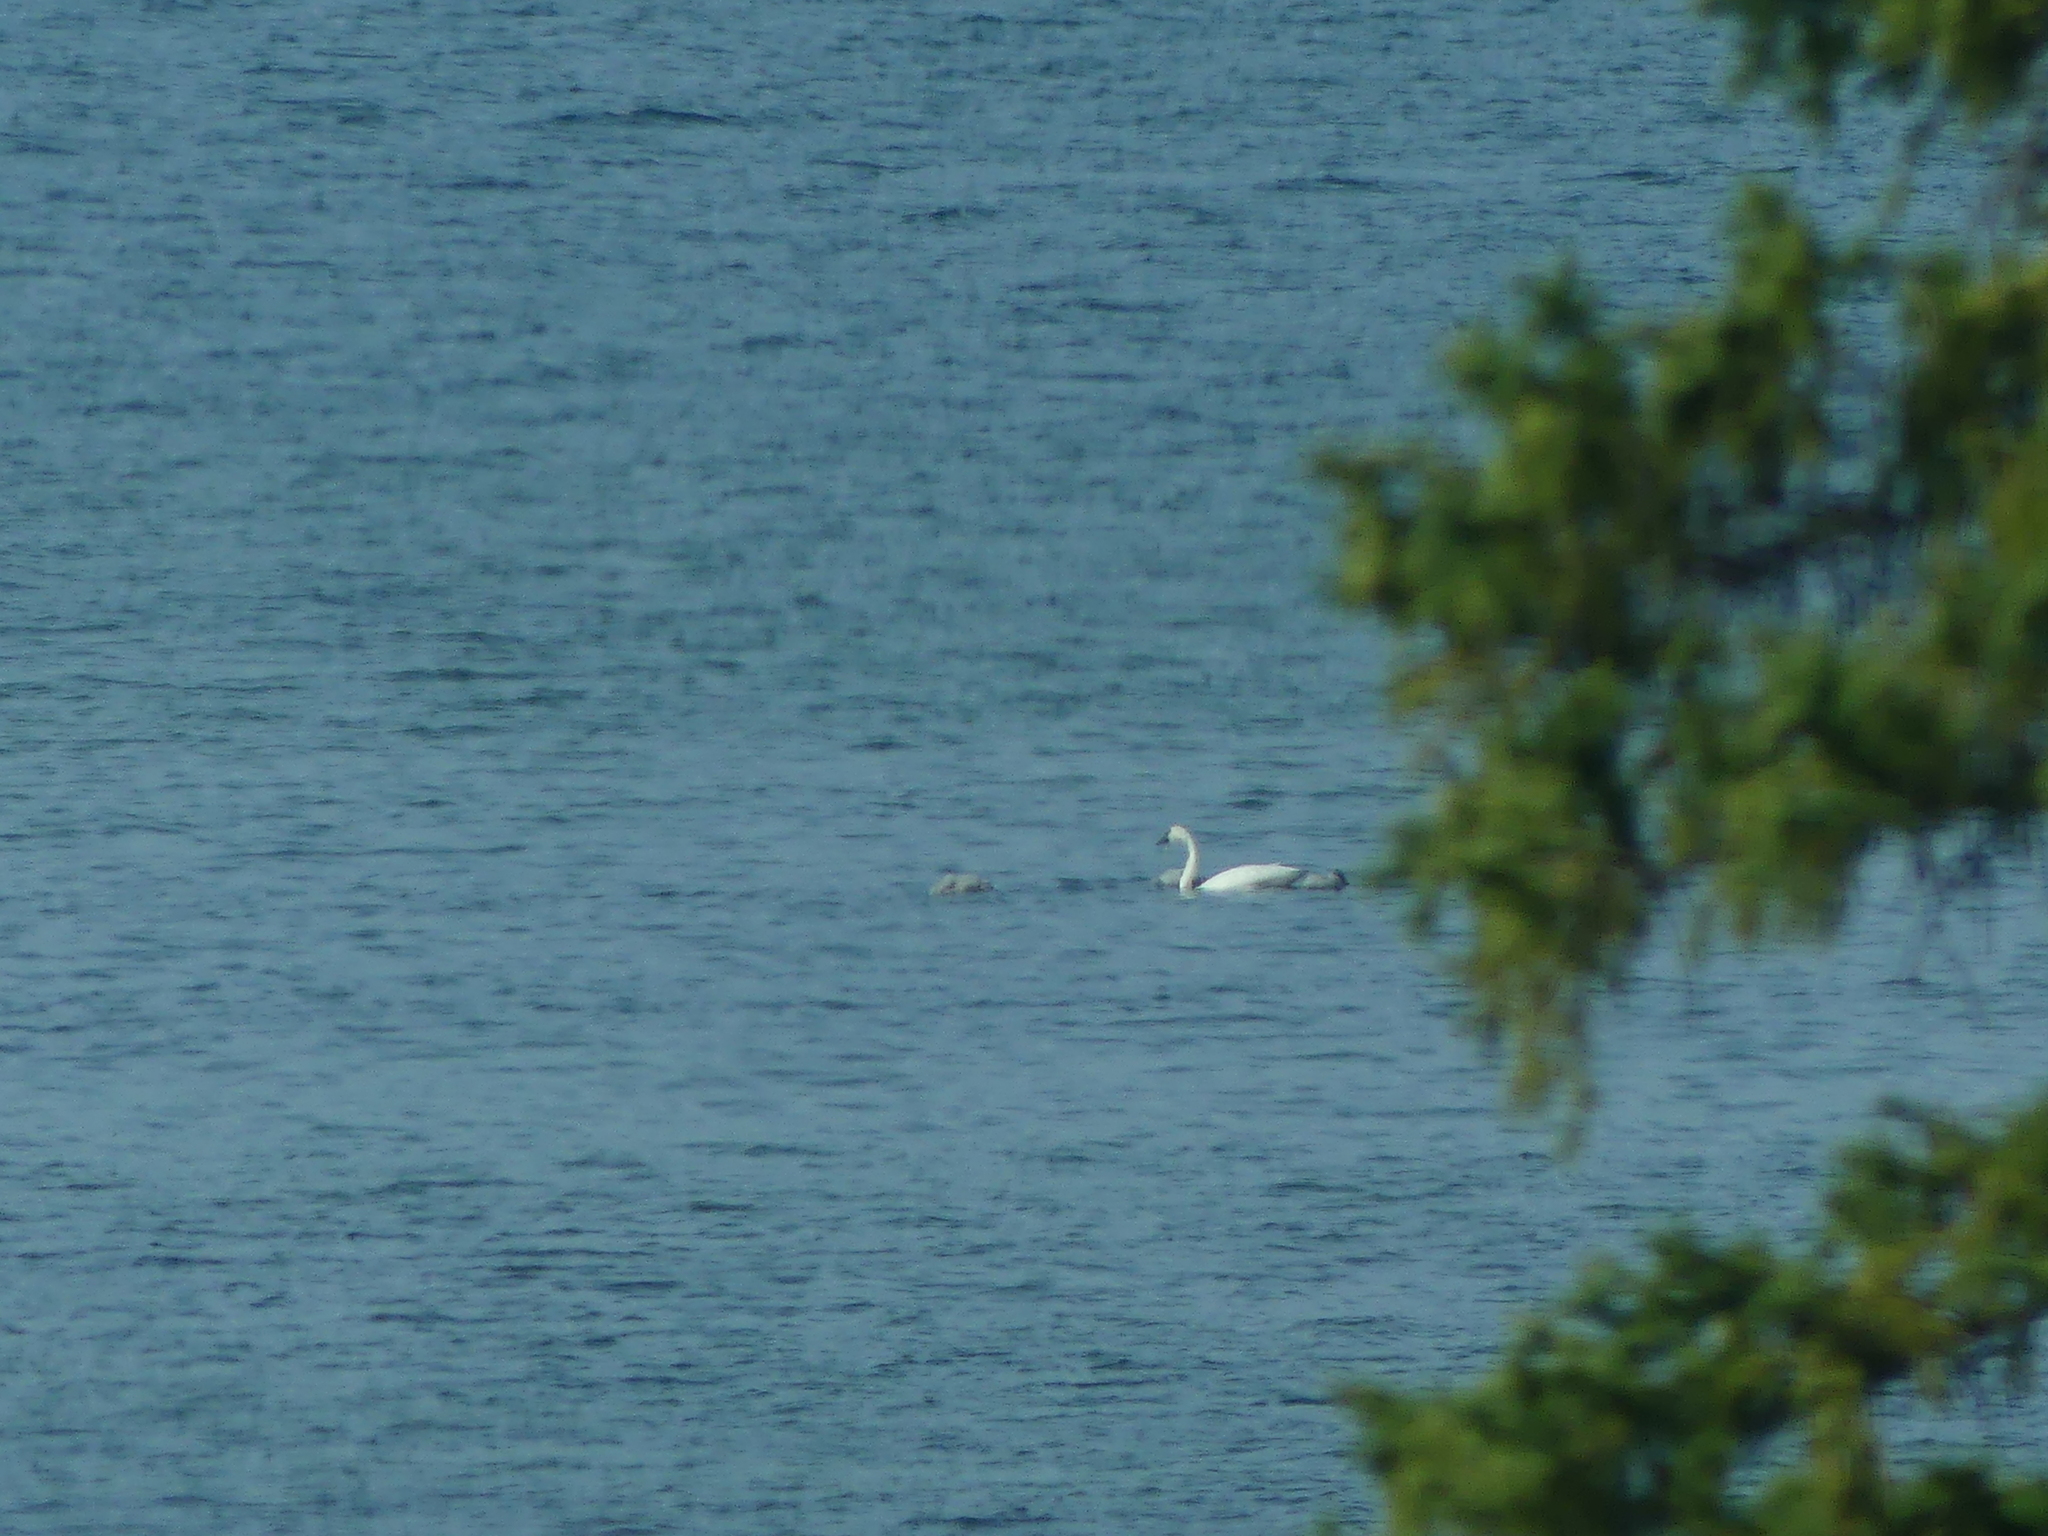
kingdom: Animalia
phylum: Chordata
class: Aves
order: Anseriformes
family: Anatidae
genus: Cygnus
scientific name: Cygnus buccinator
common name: Trumpeter swan
